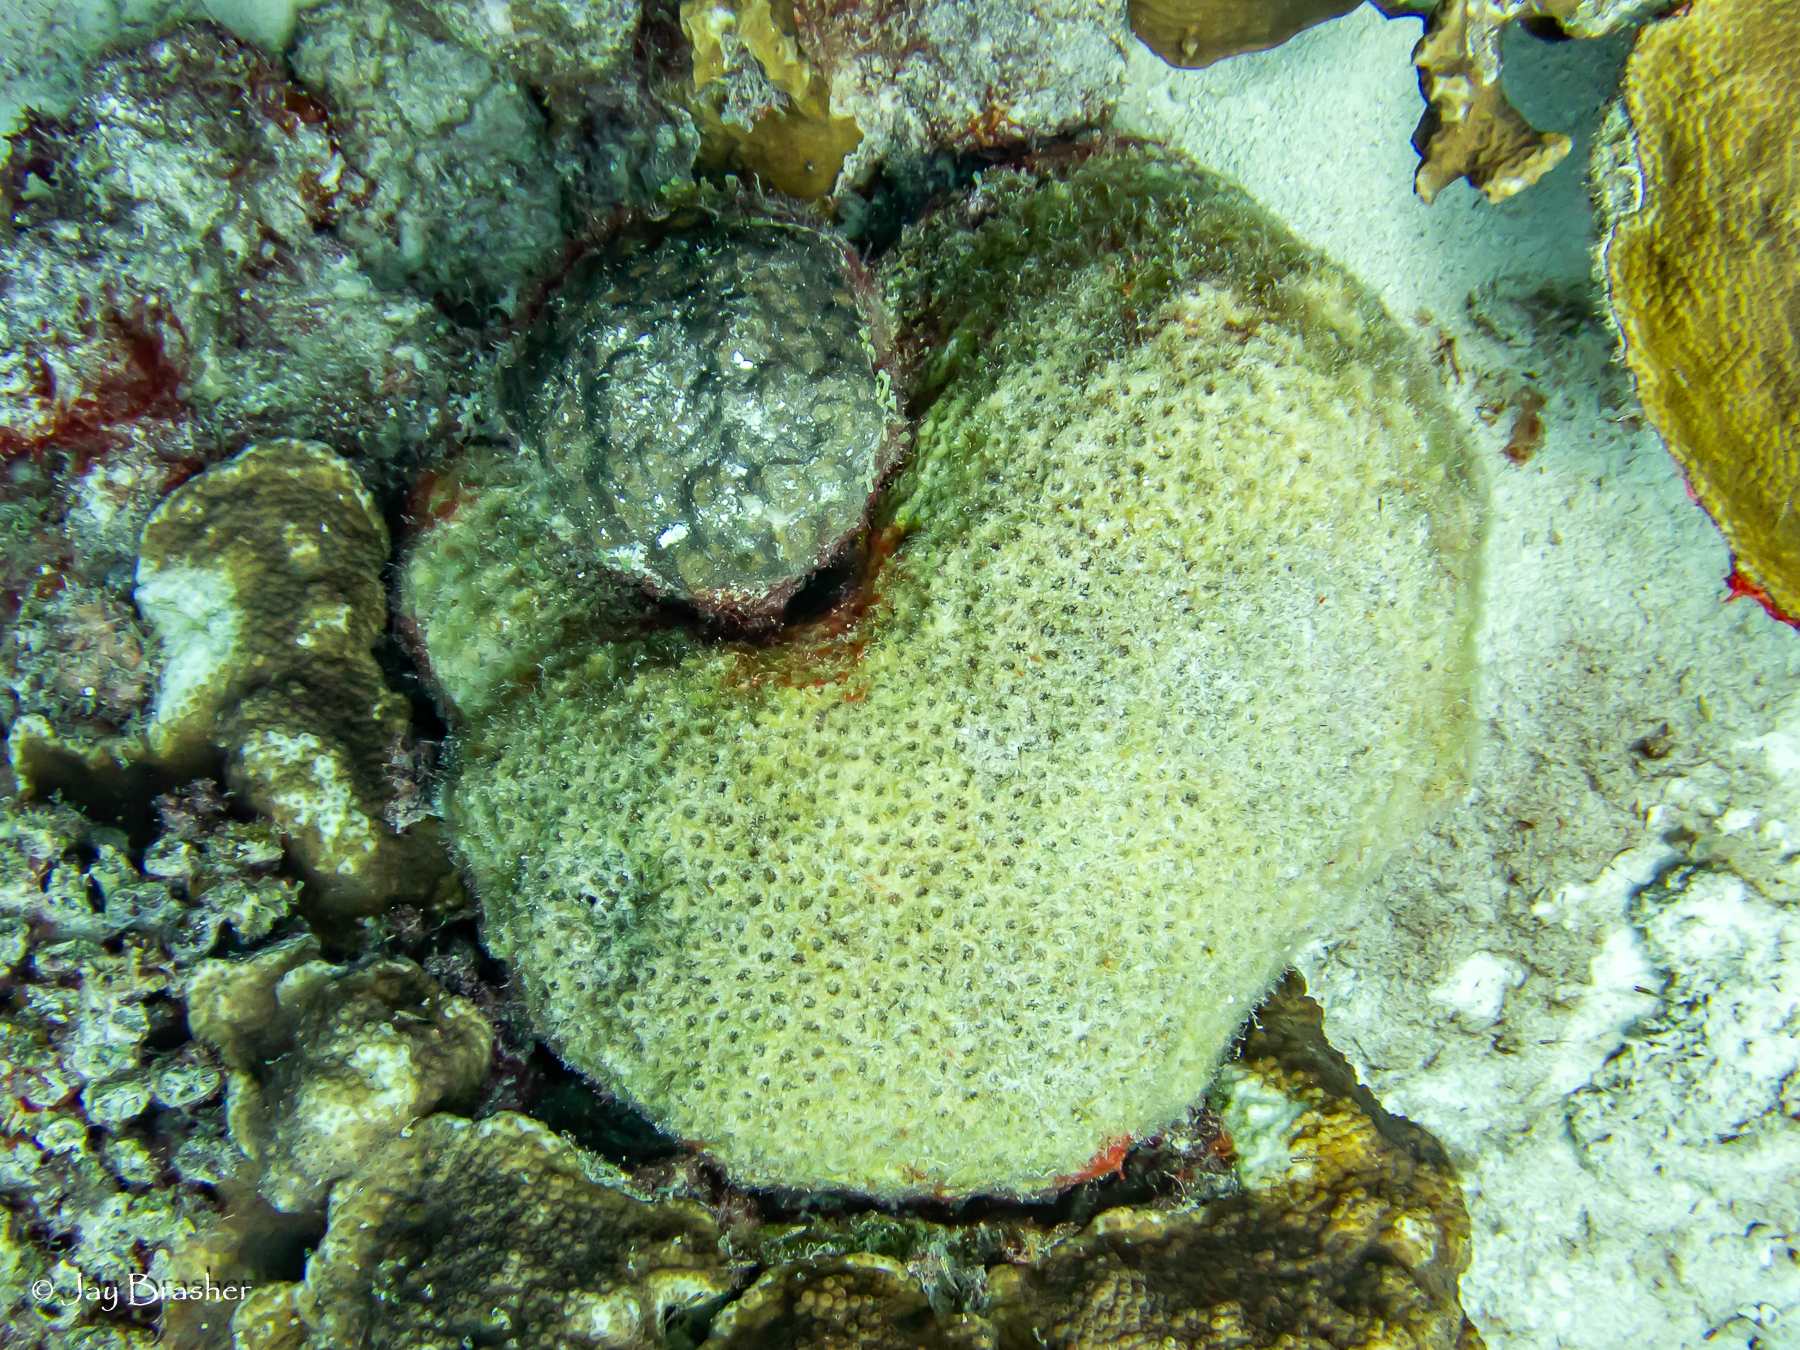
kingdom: Animalia
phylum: Cnidaria
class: Anthozoa
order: Scleractinia
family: Montastraeidae
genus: Montastraea
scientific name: Montastraea cavernosa
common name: Great star coral
